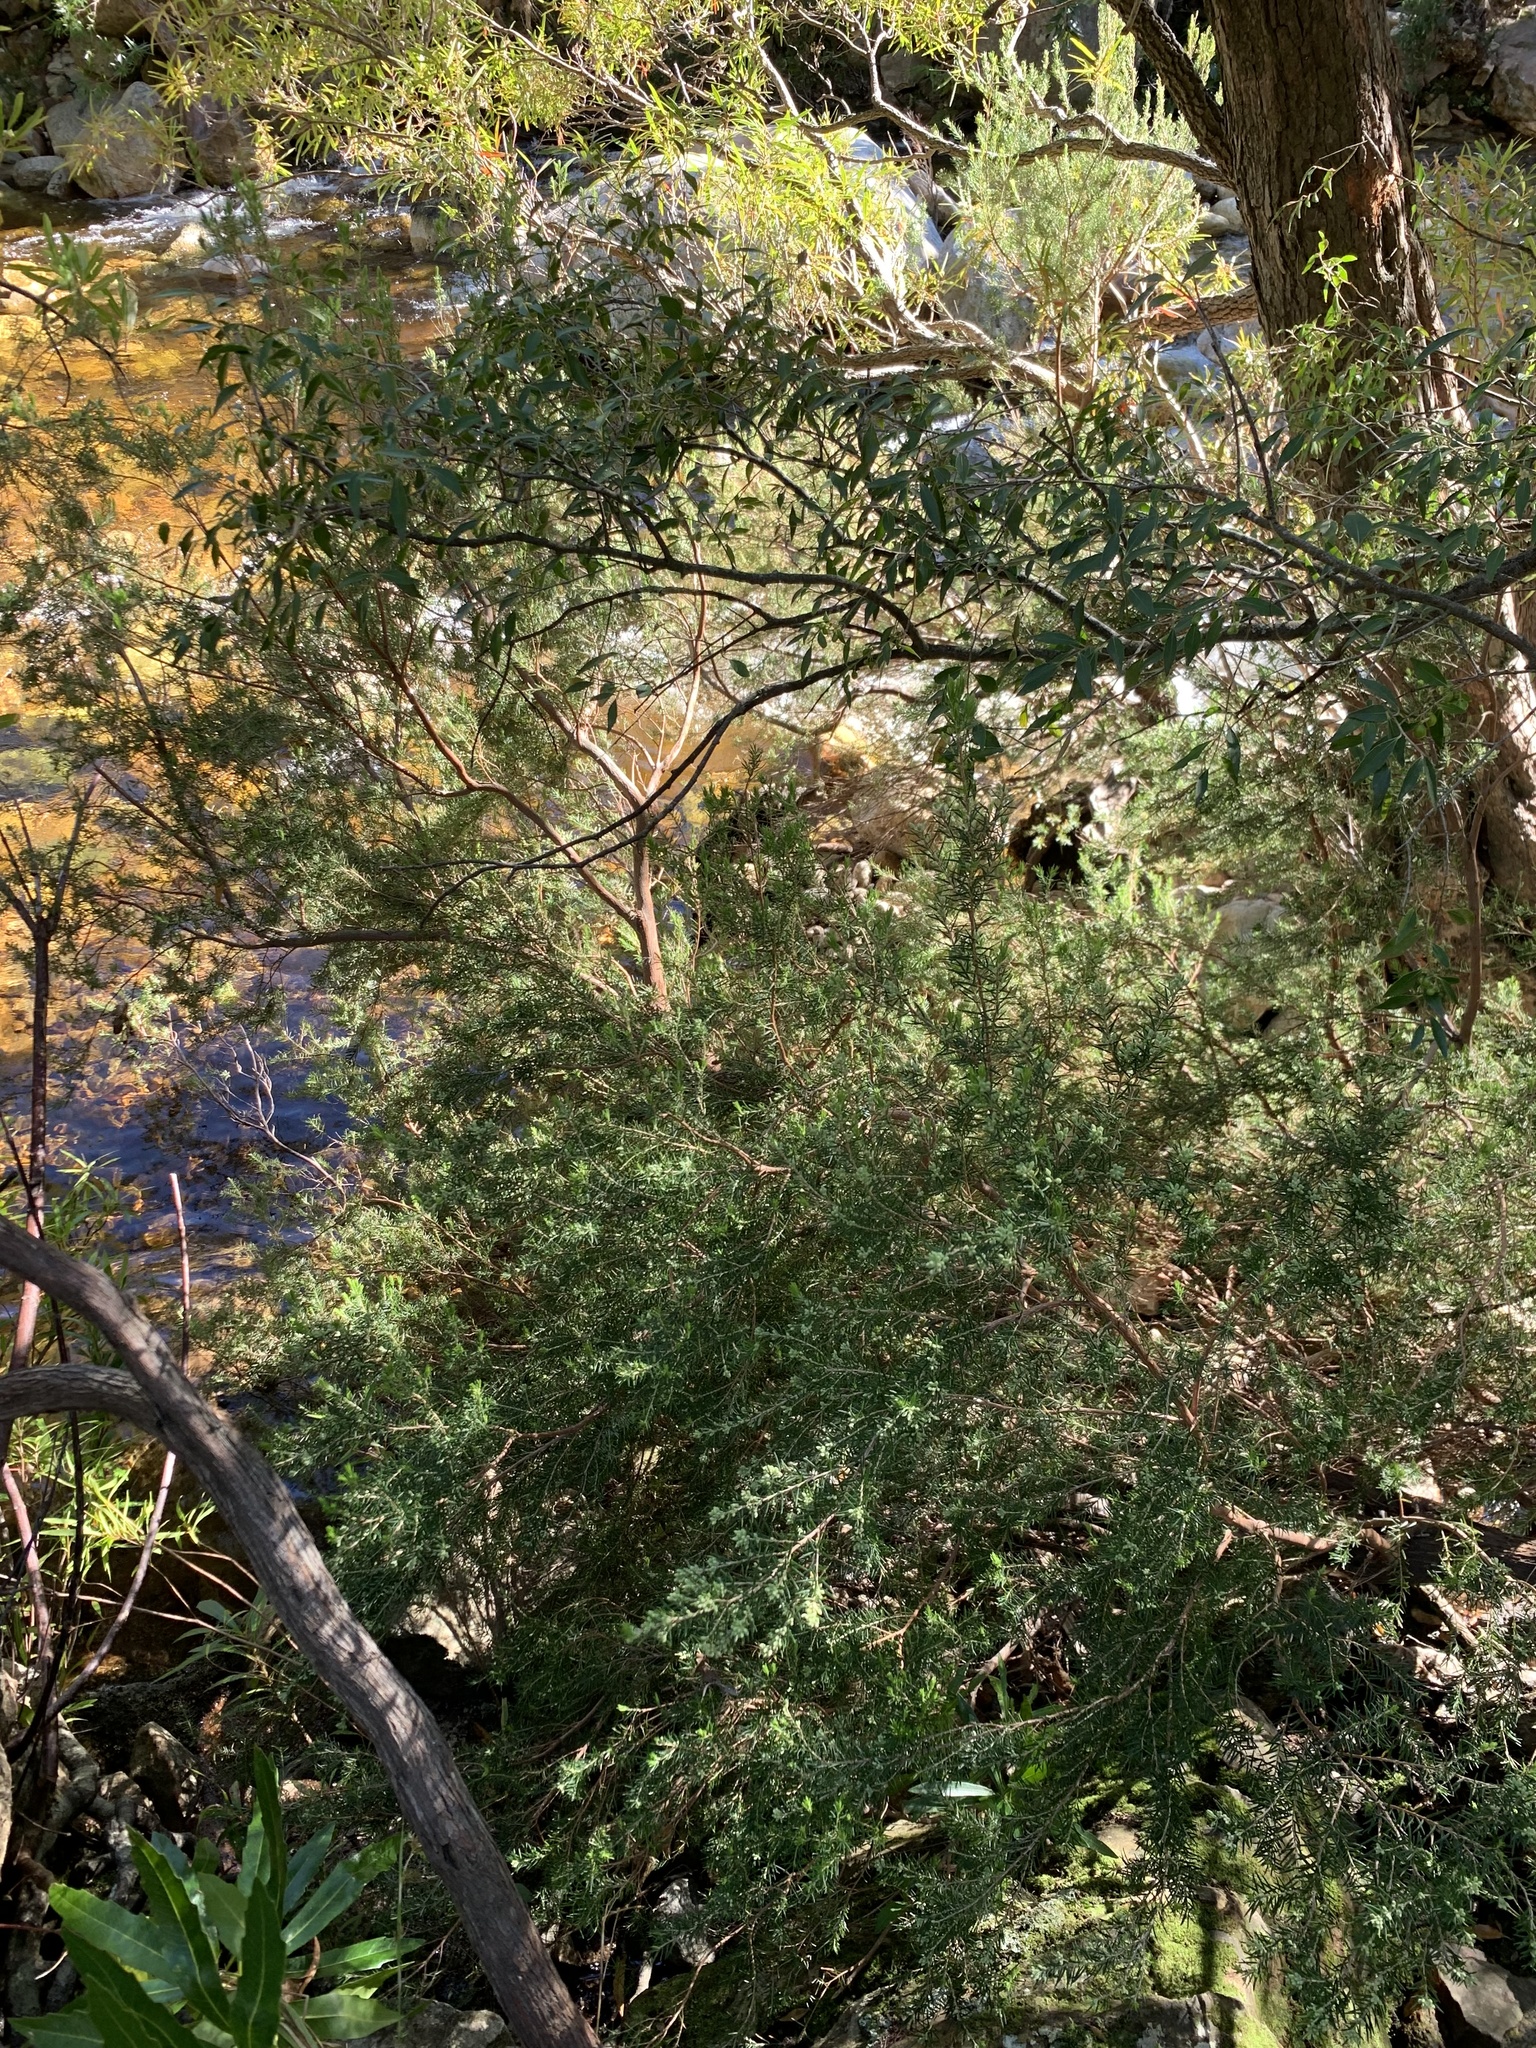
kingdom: Plantae
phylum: Tracheophyta
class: Magnoliopsida
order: Ericales
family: Ericaceae
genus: Erica
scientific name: Erica caffra
